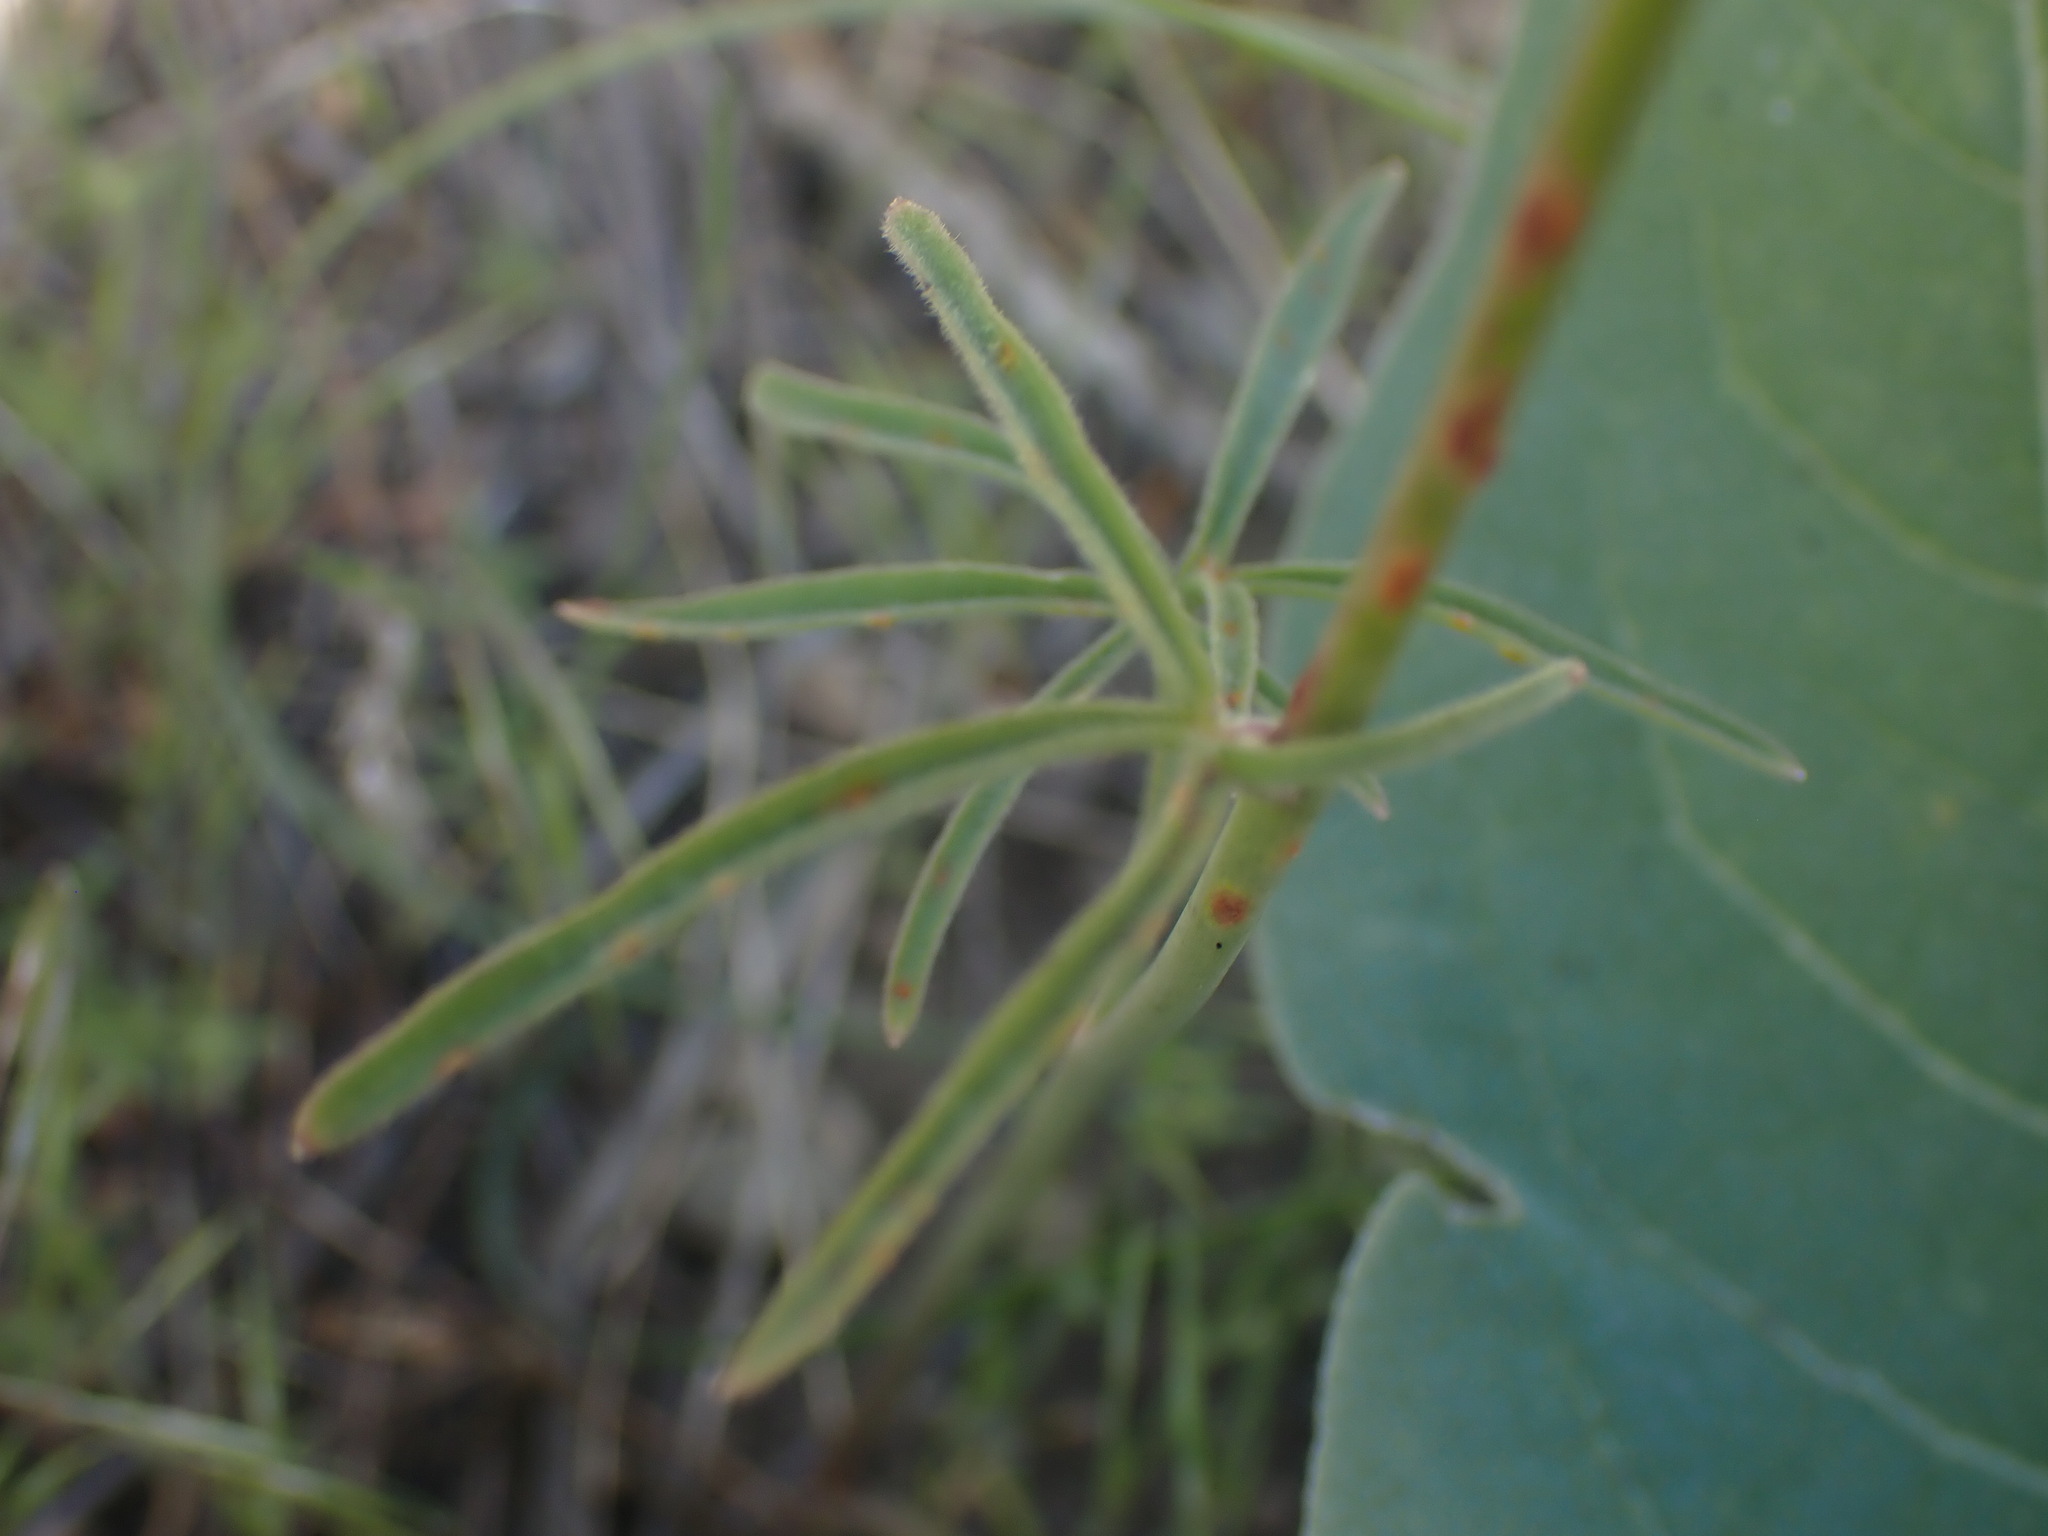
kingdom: Plantae
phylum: Tracheophyta
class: Magnoliopsida
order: Ranunculales
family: Ranunculaceae
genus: Delphinium
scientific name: Delphinium nuttallianum
